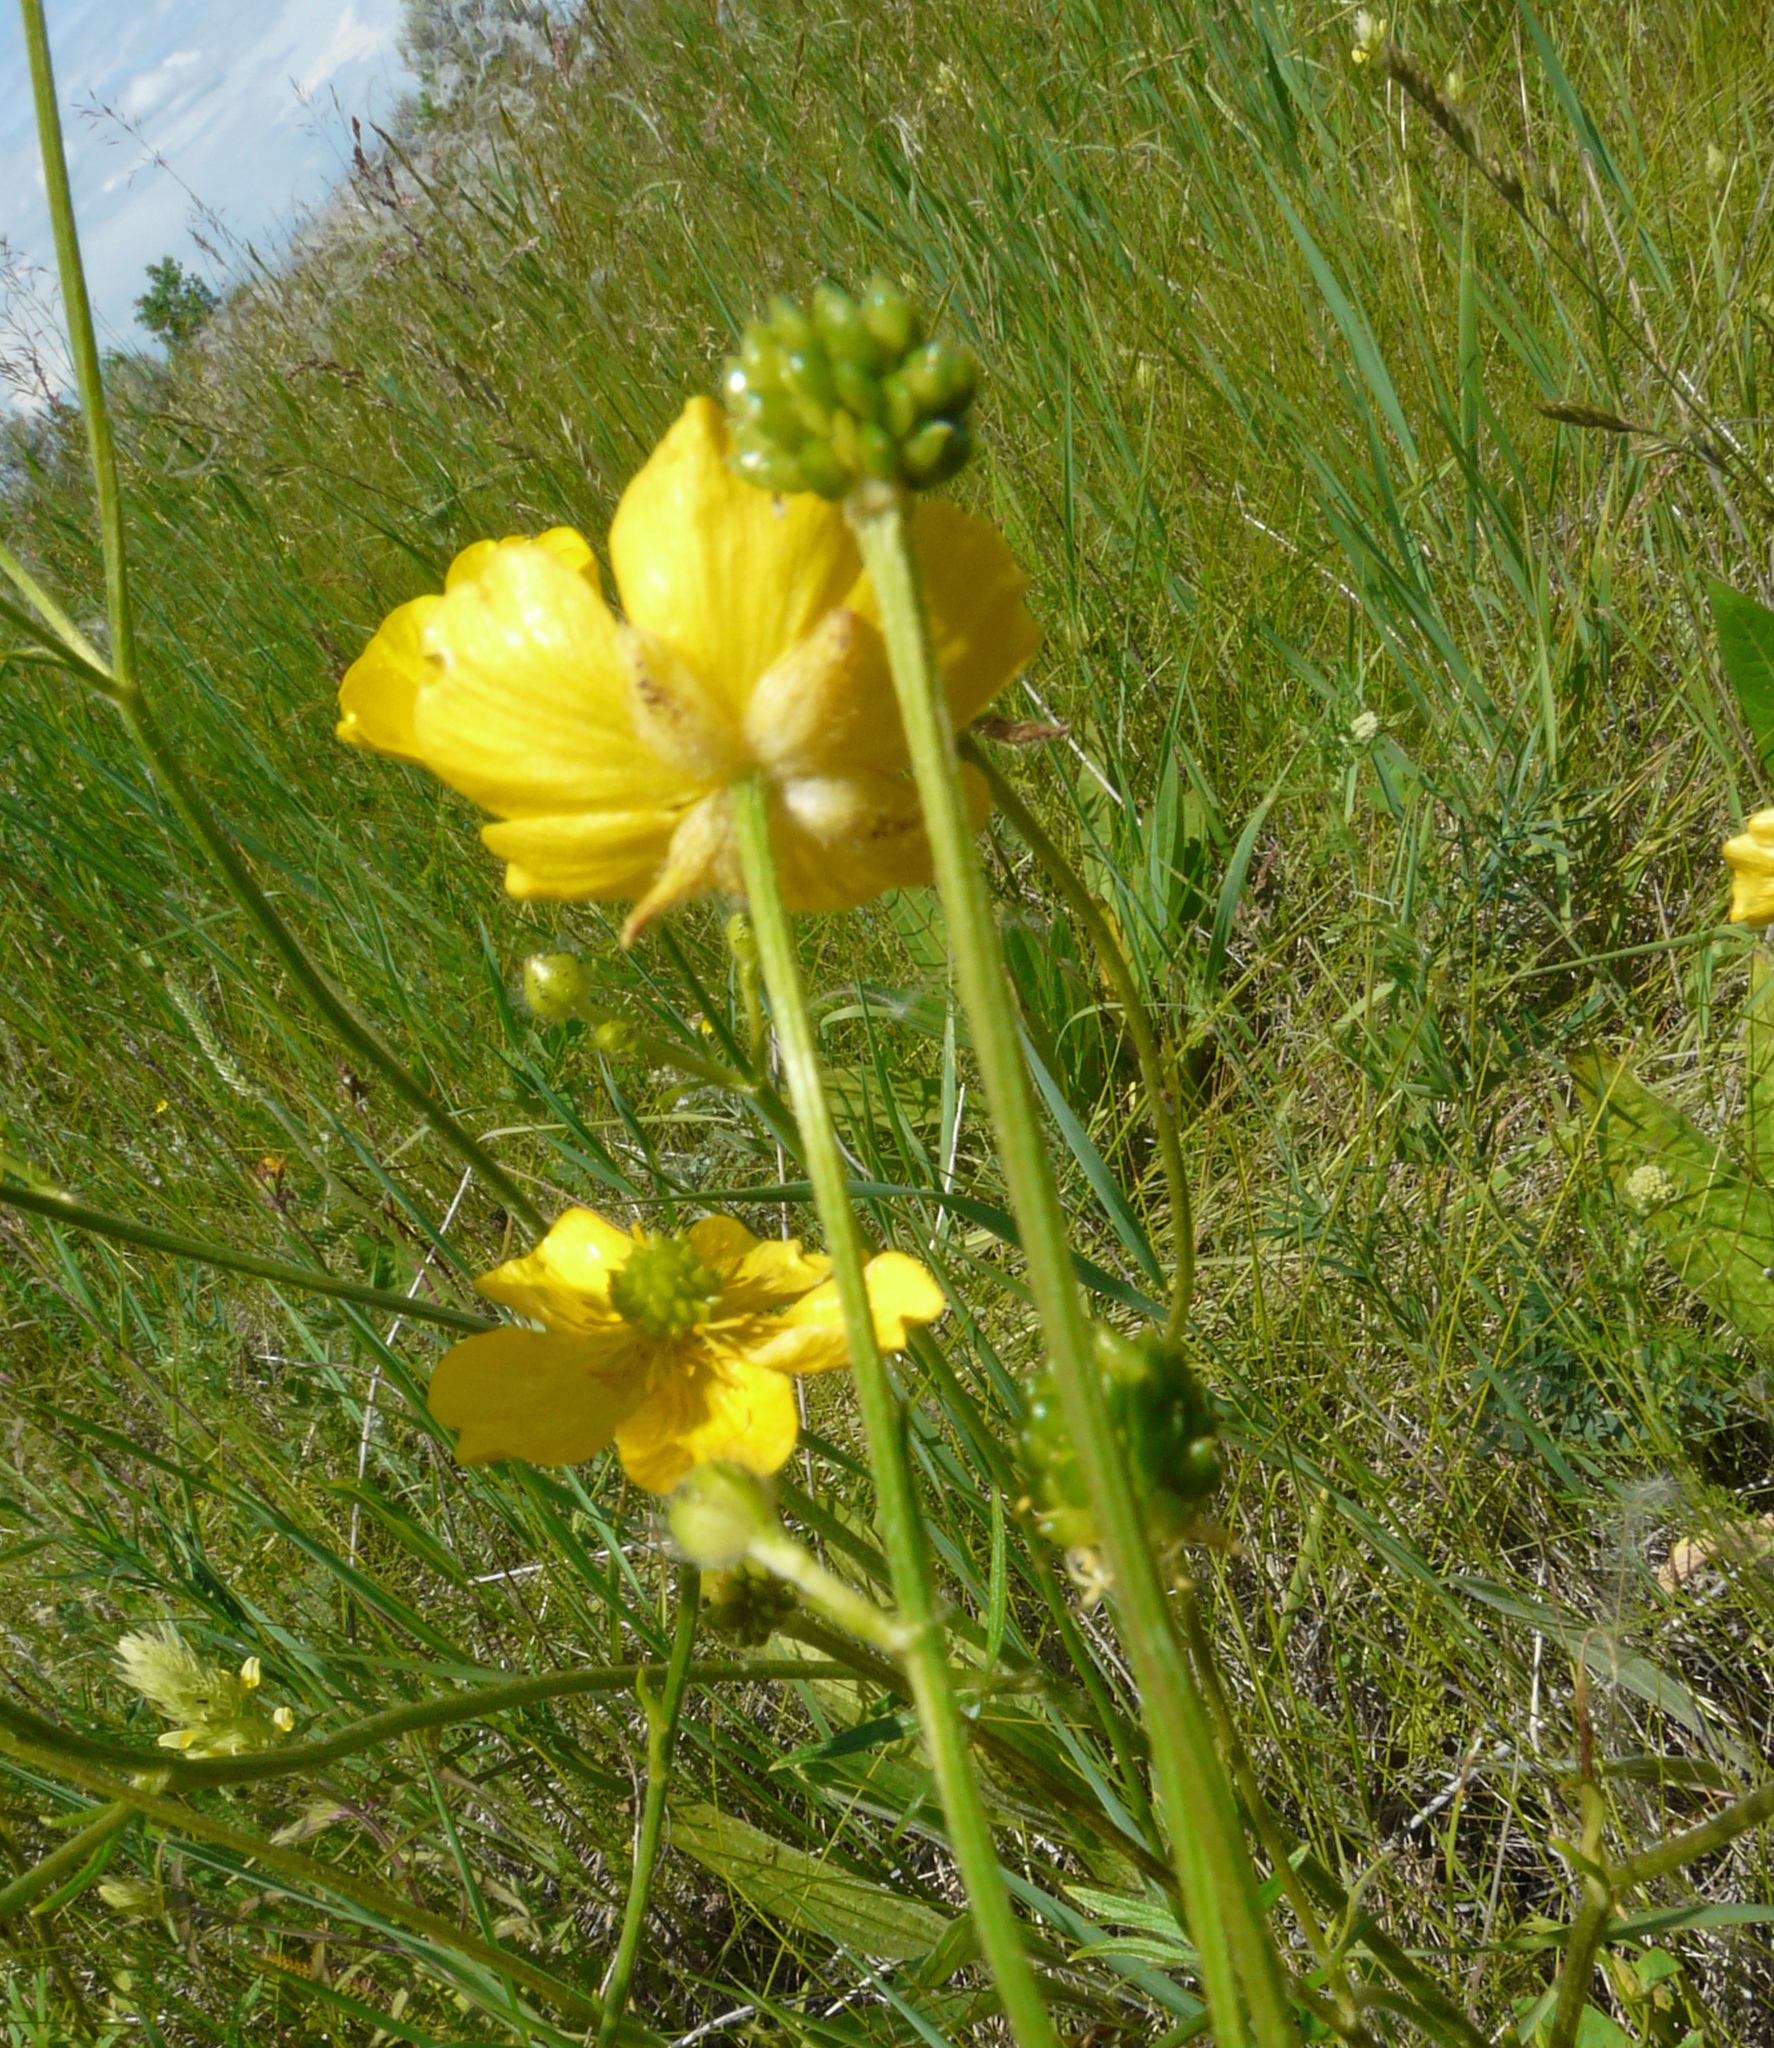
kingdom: Plantae
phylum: Tracheophyta
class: Magnoliopsida
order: Ranunculales
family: Ranunculaceae
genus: Ranunculus
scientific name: Ranunculus polyanthemos
